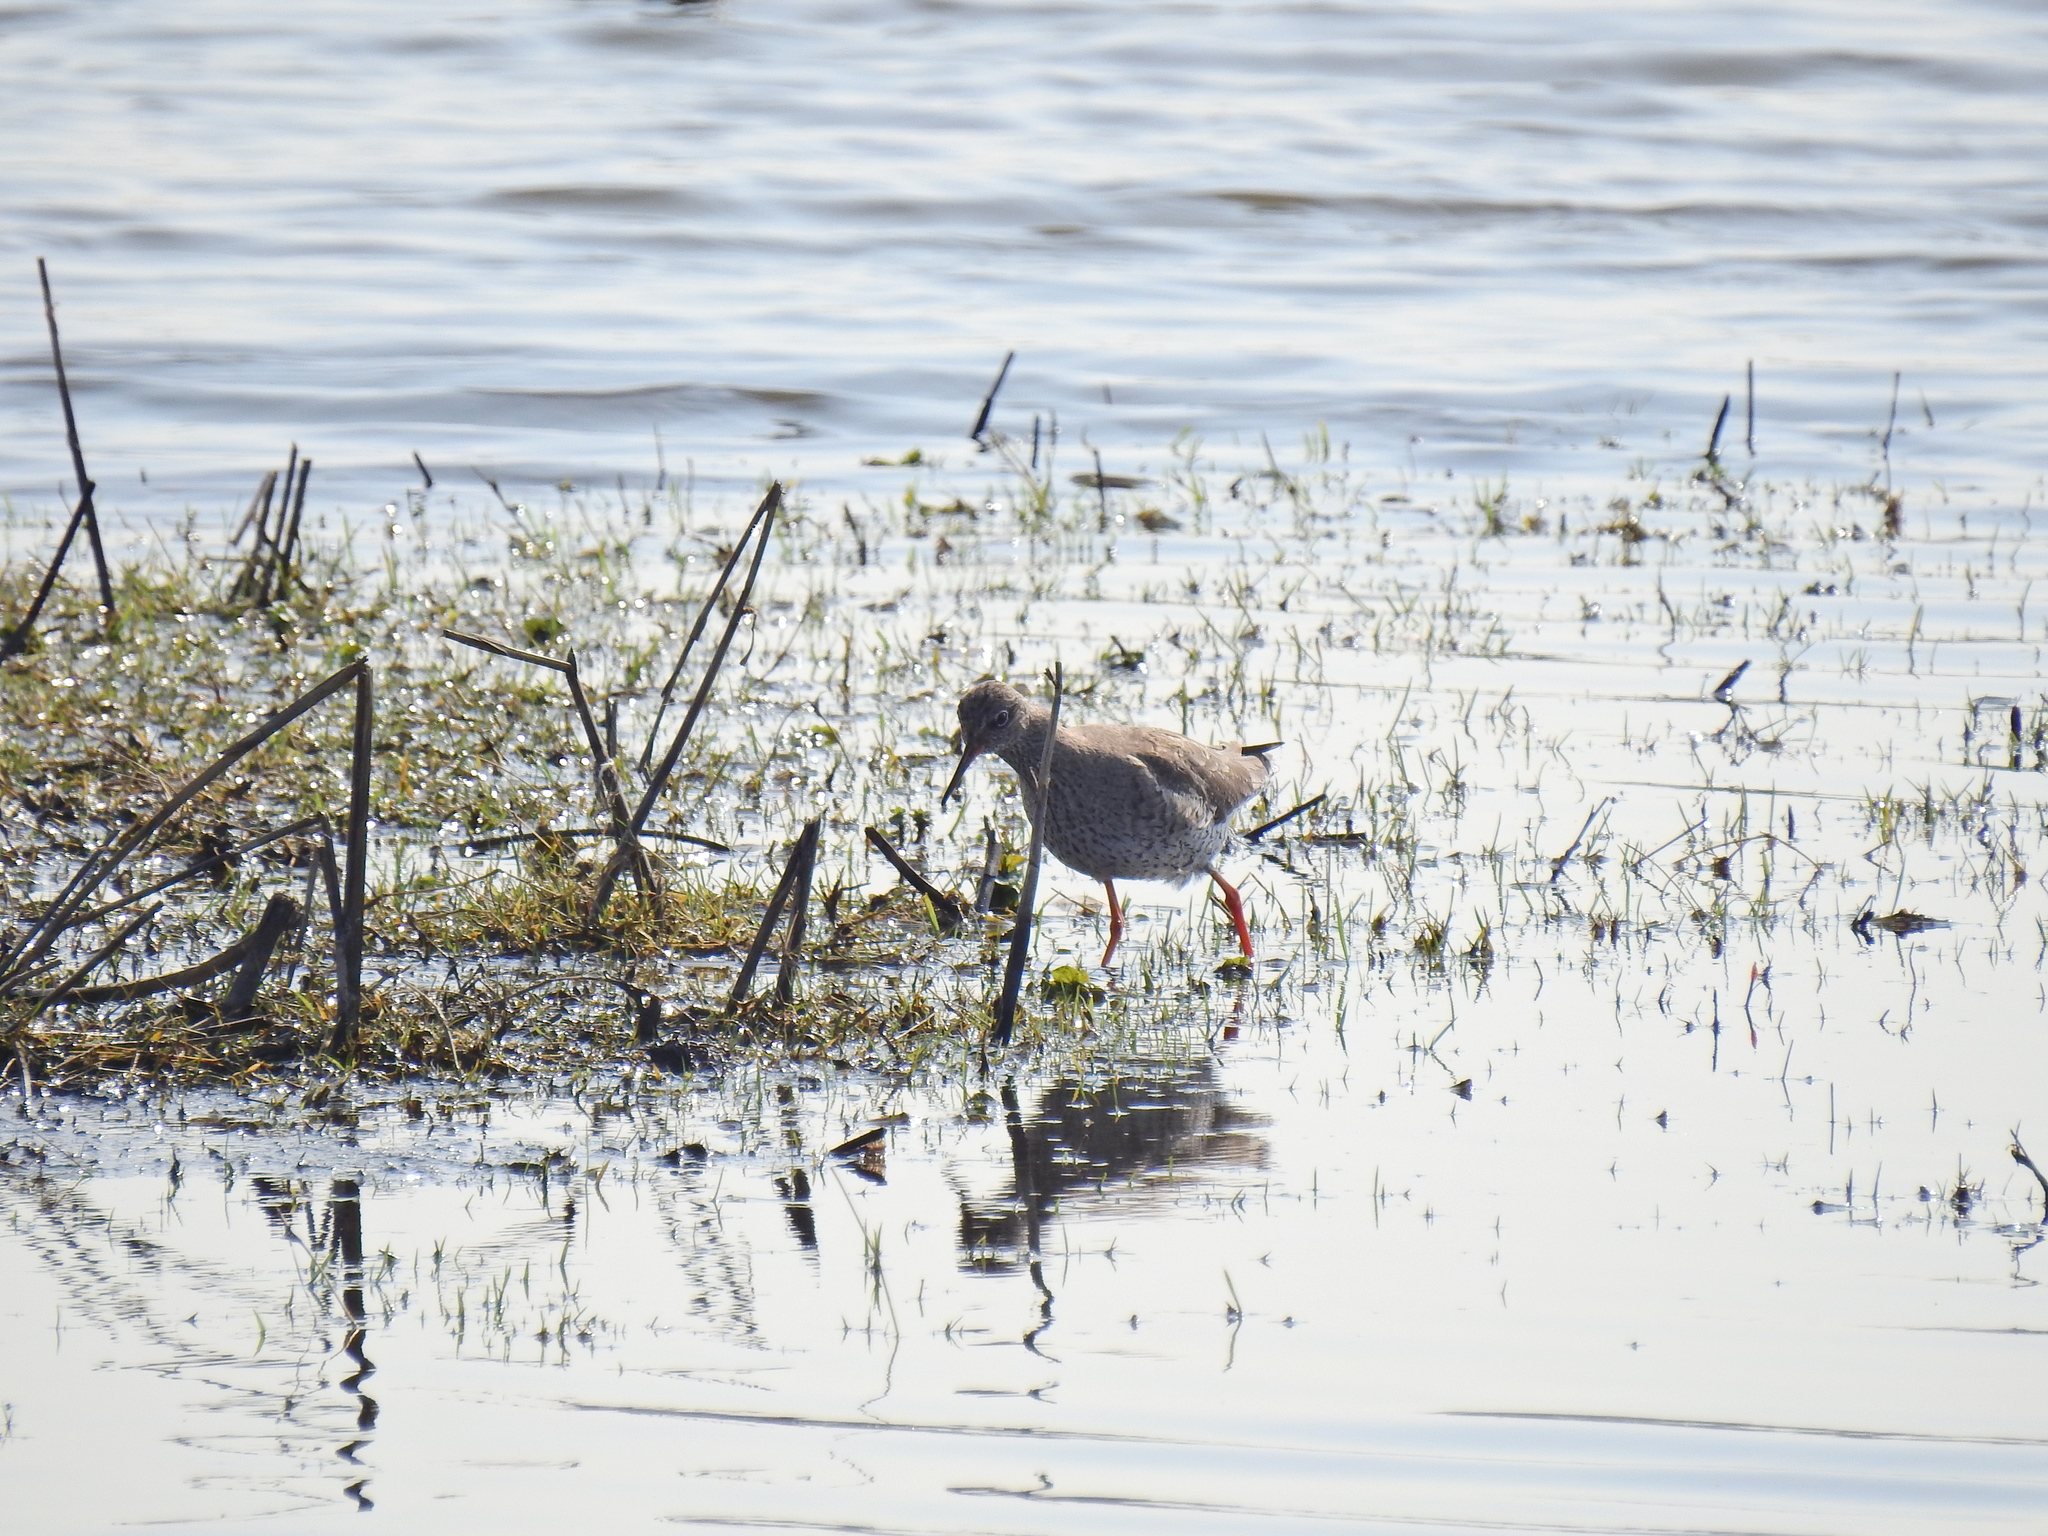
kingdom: Animalia
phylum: Chordata
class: Aves
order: Charadriiformes
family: Scolopacidae
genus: Tringa
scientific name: Tringa totanus
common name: Common redshank
